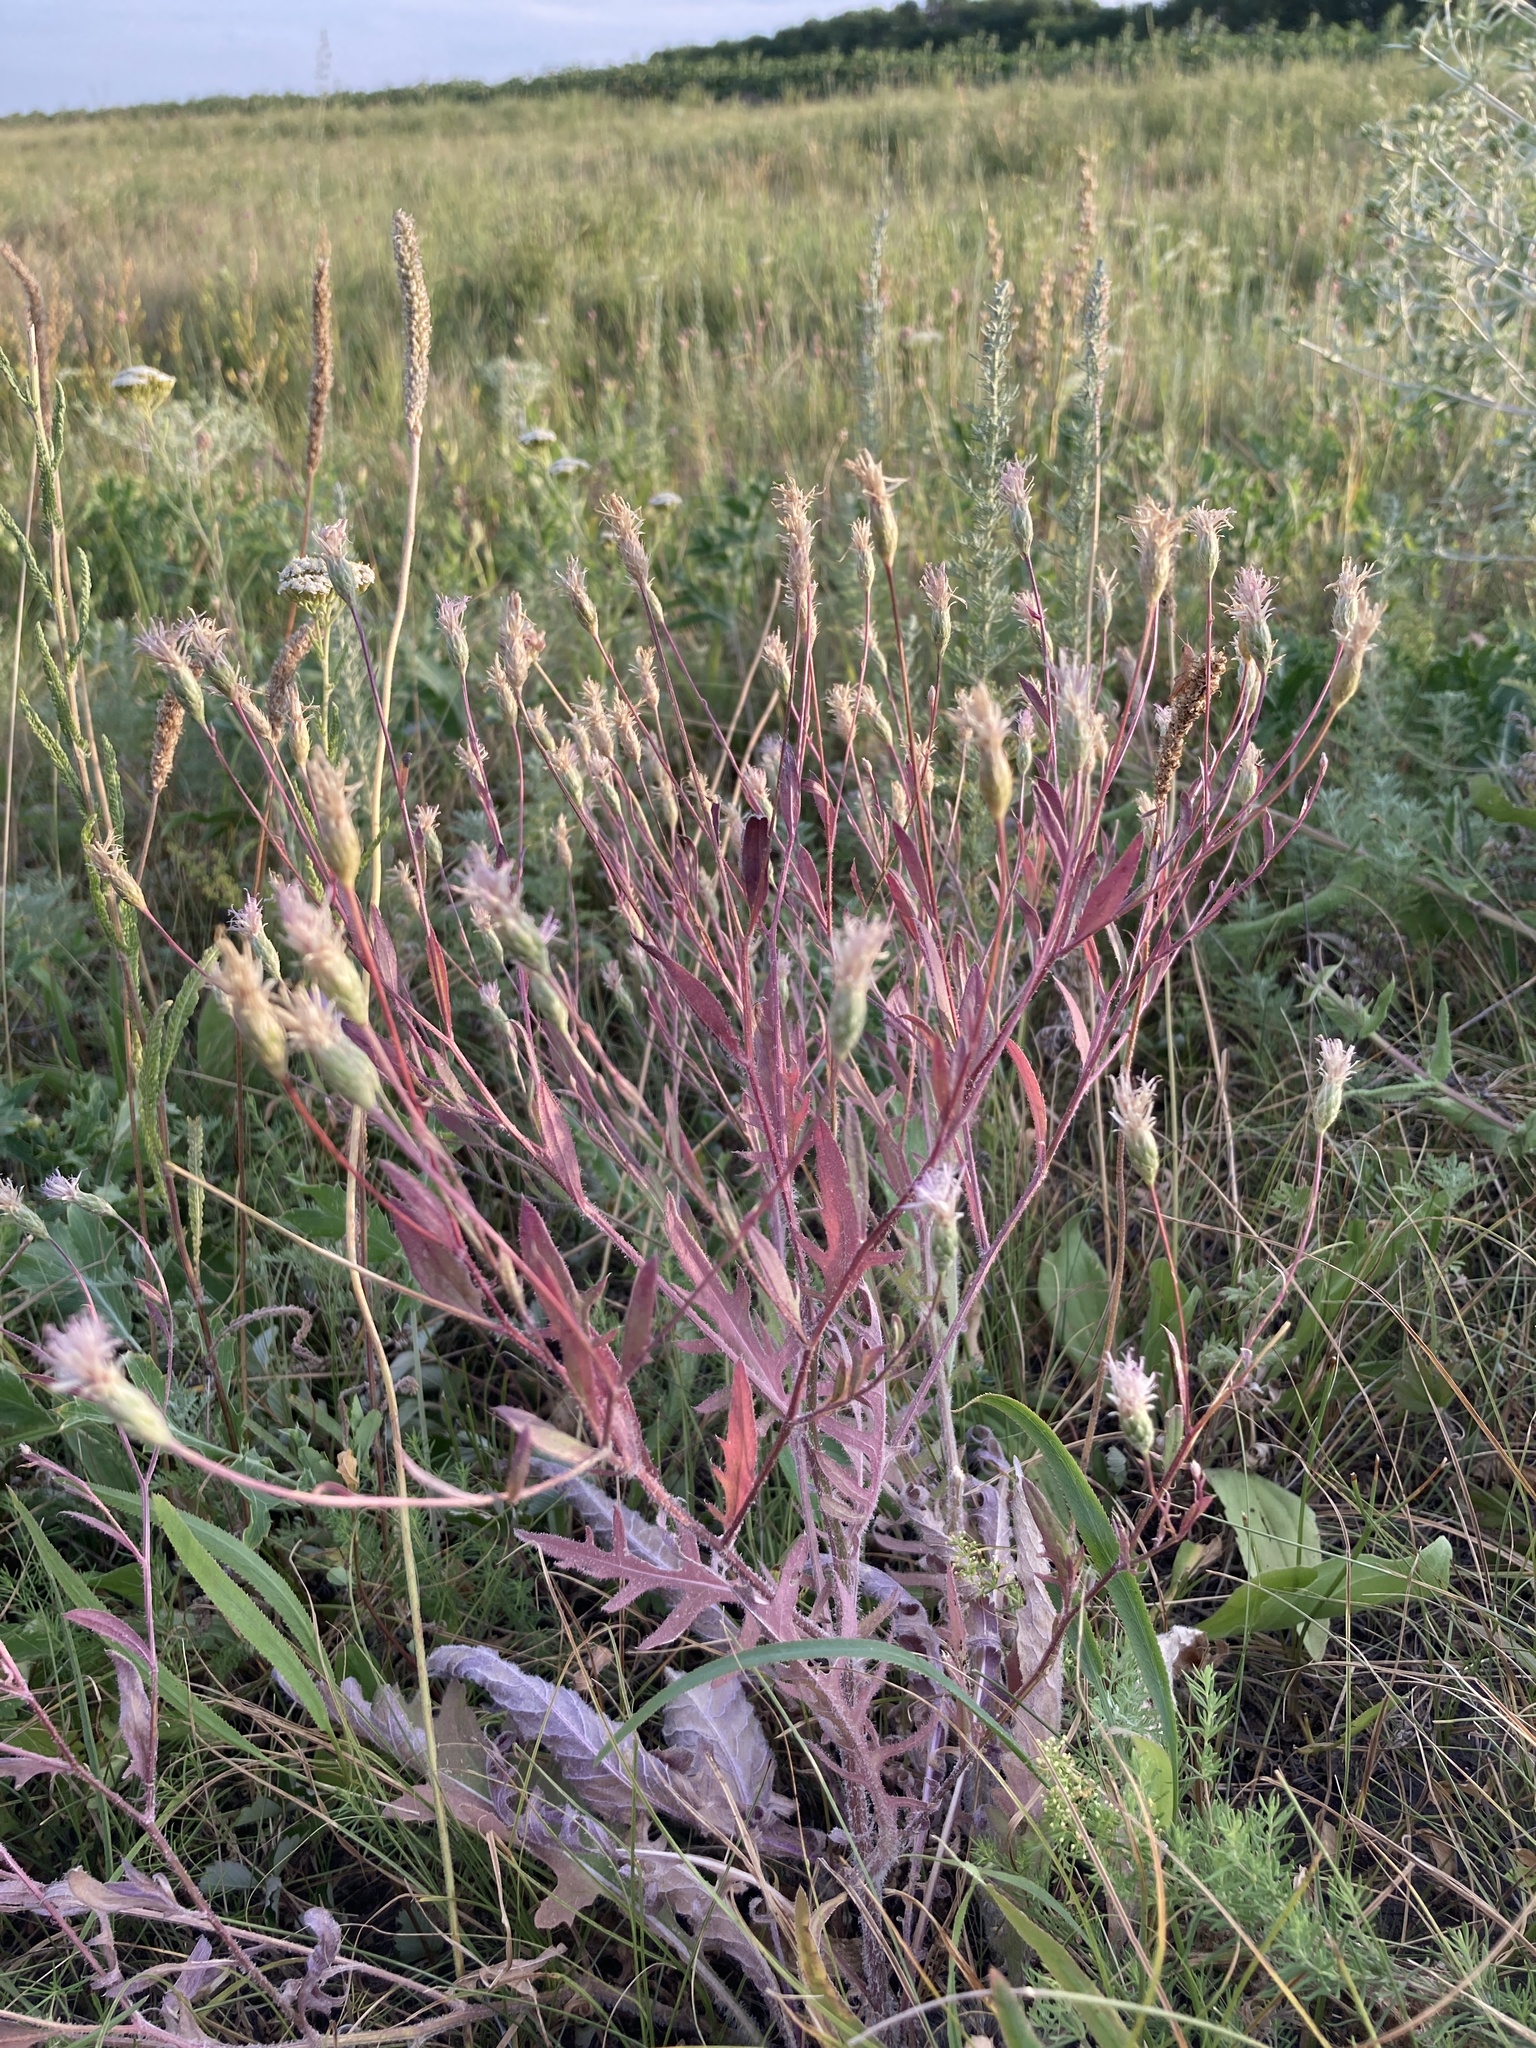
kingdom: Plantae
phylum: Tracheophyta
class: Magnoliopsida
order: Asterales
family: Asteraceae
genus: Klasea
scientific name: Klasea erucifolia
